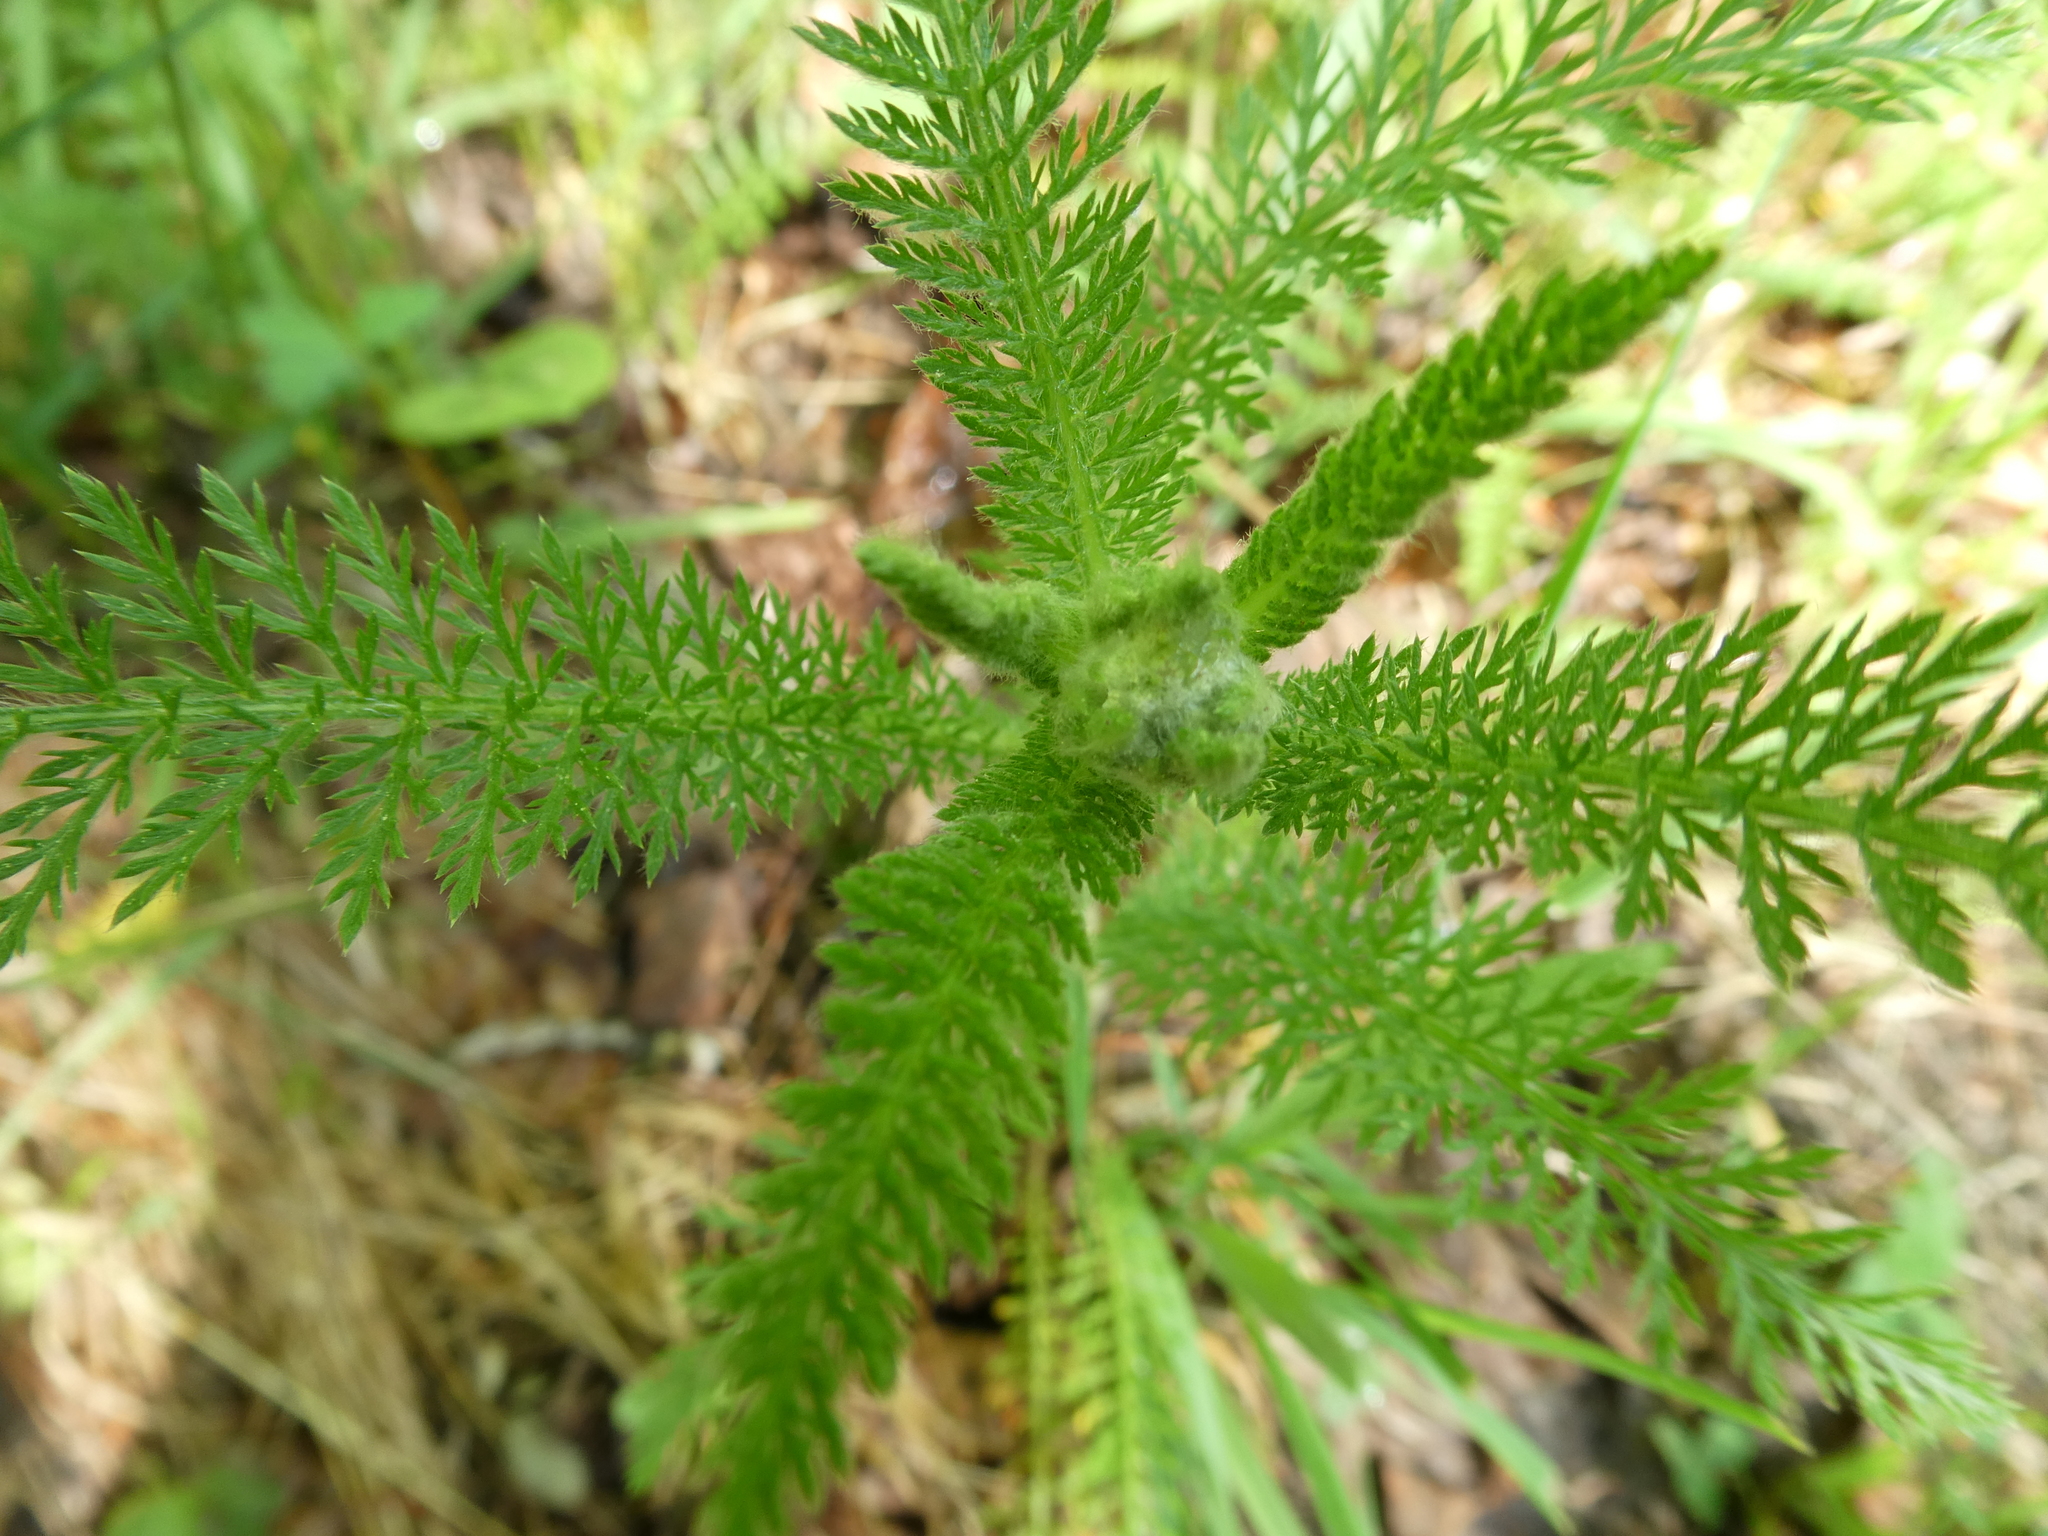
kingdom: Plantae
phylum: Tracheophyta
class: Magnoliopsida
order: Asterales
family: Asteraceae
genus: Achillea
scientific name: Achillea millefolium
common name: Yarrow
